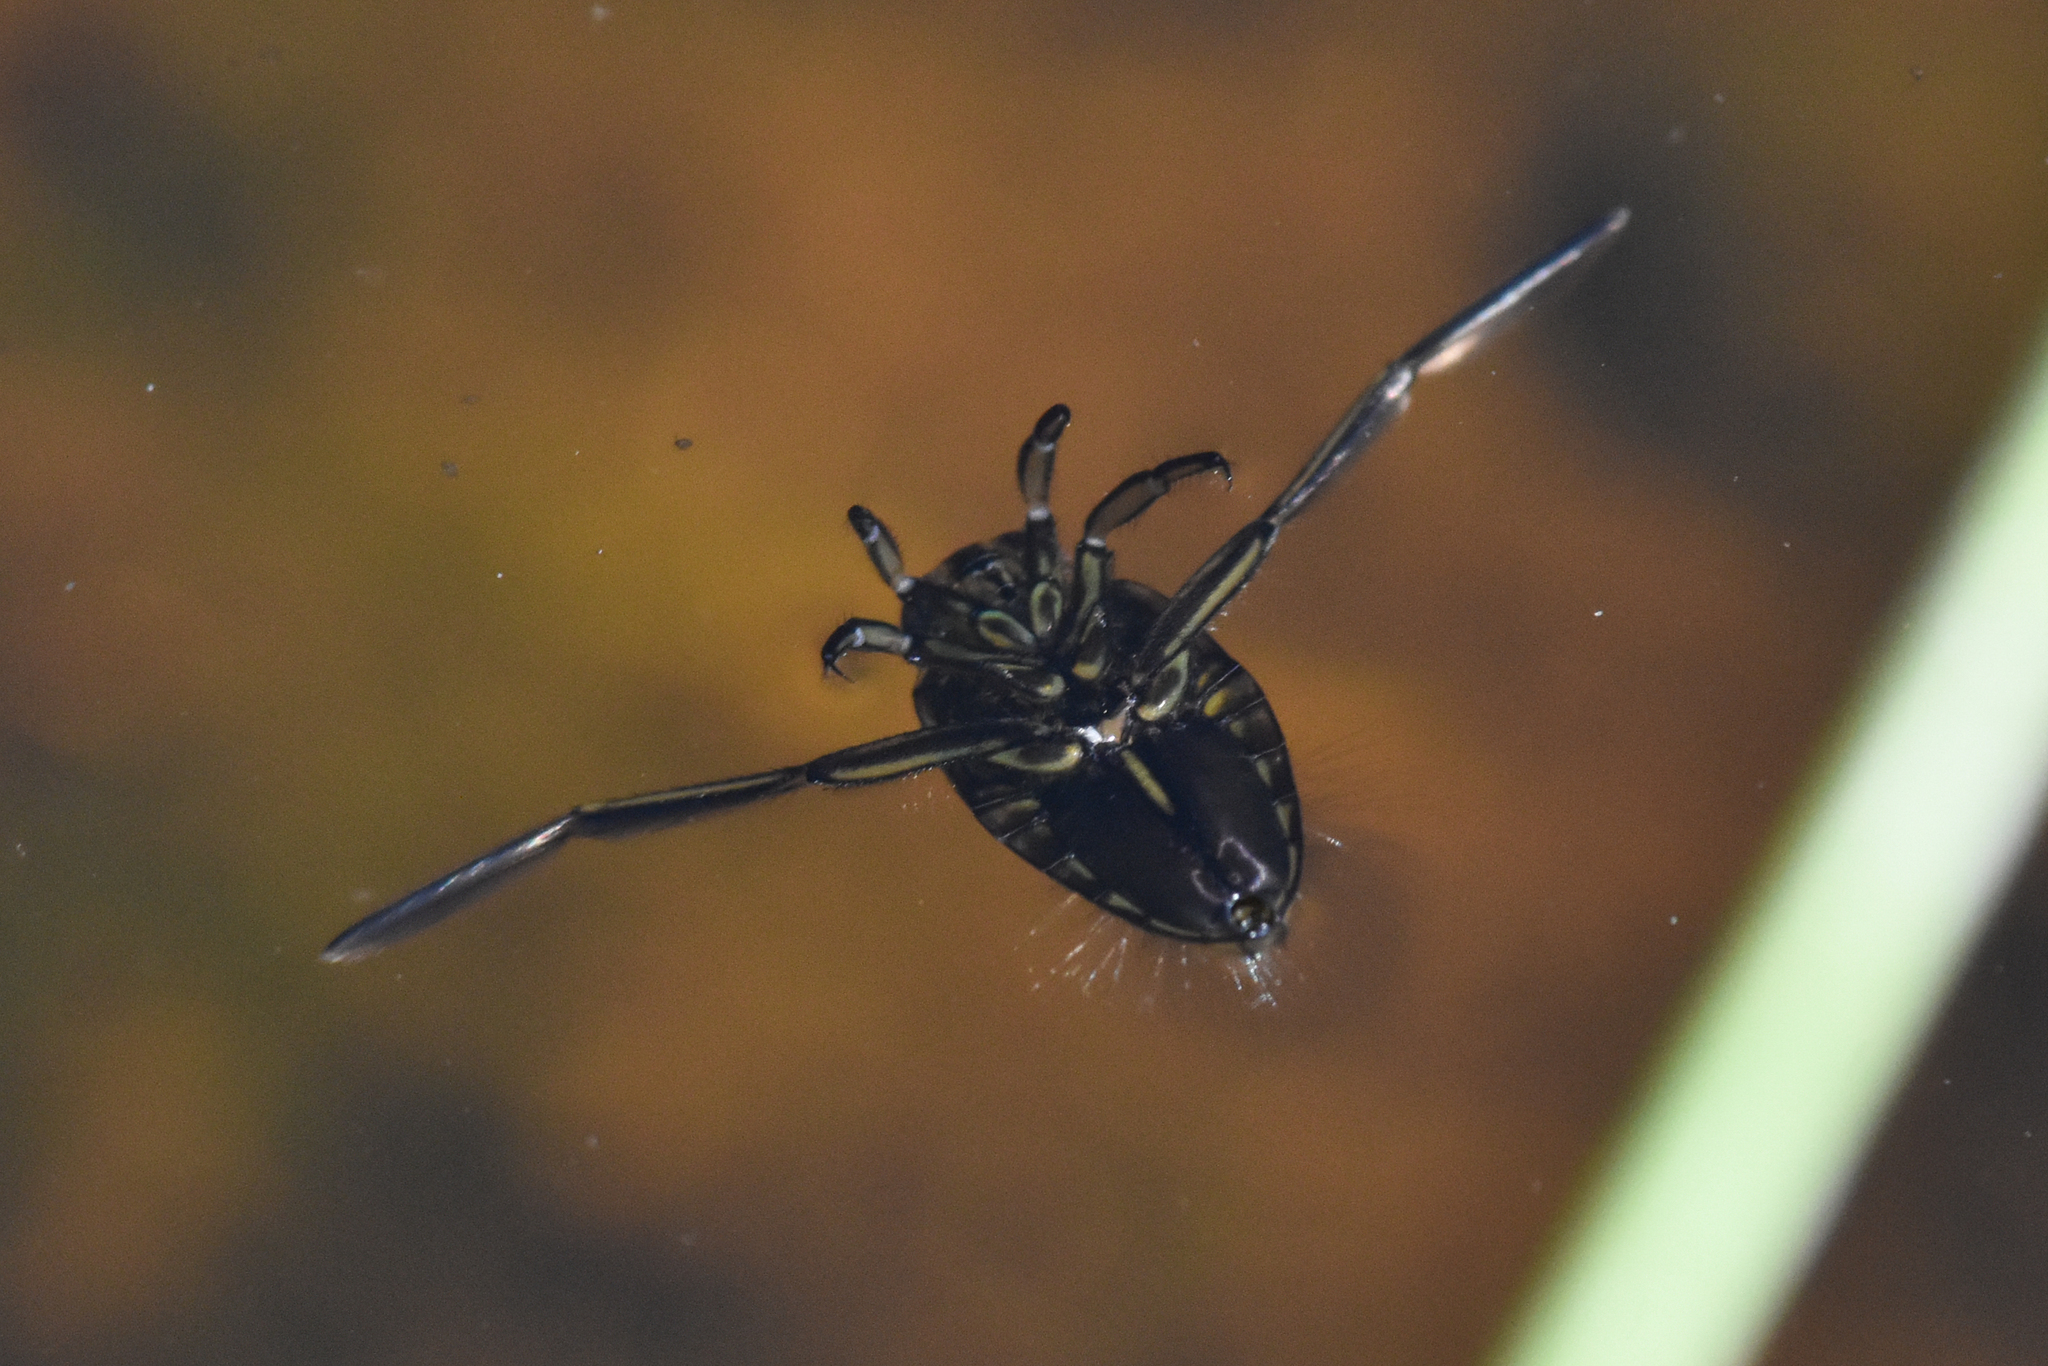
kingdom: Animalia
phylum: Arthropoda
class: Insecta
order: Hemiptera
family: Notonectidae
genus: Notonecta
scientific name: Notonecta
